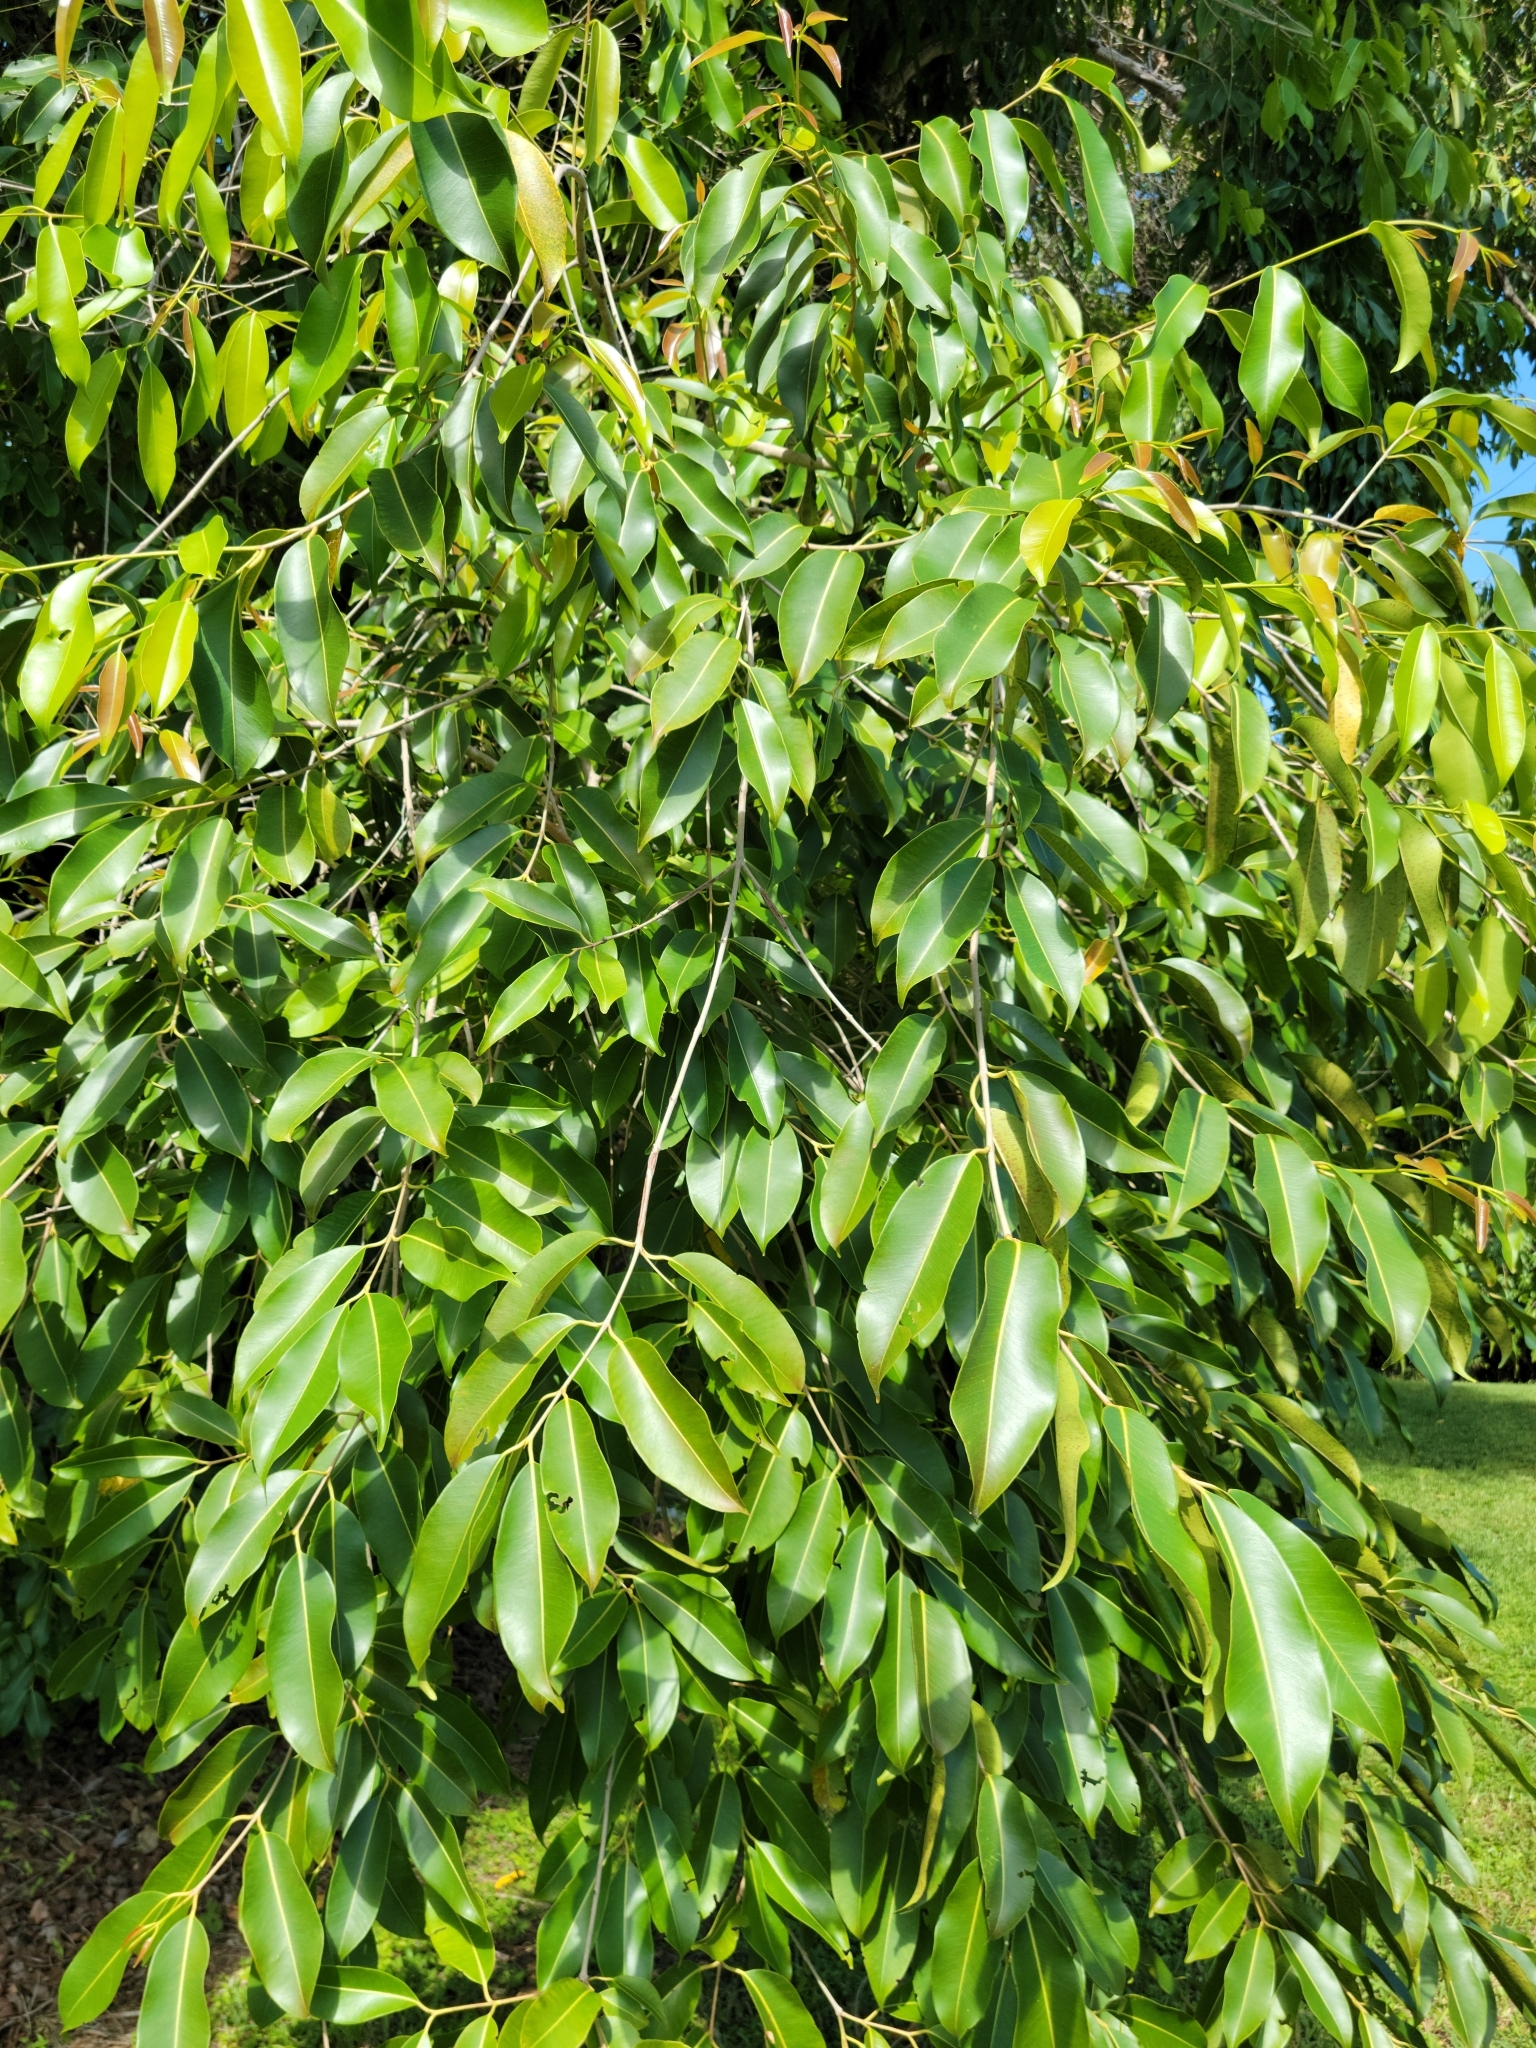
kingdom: Plantae
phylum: Tracheophyta
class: Magnoliopsida
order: Myrtales
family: Myrtaceae
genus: Syzygium
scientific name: Syzygium cumini
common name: Java plum
